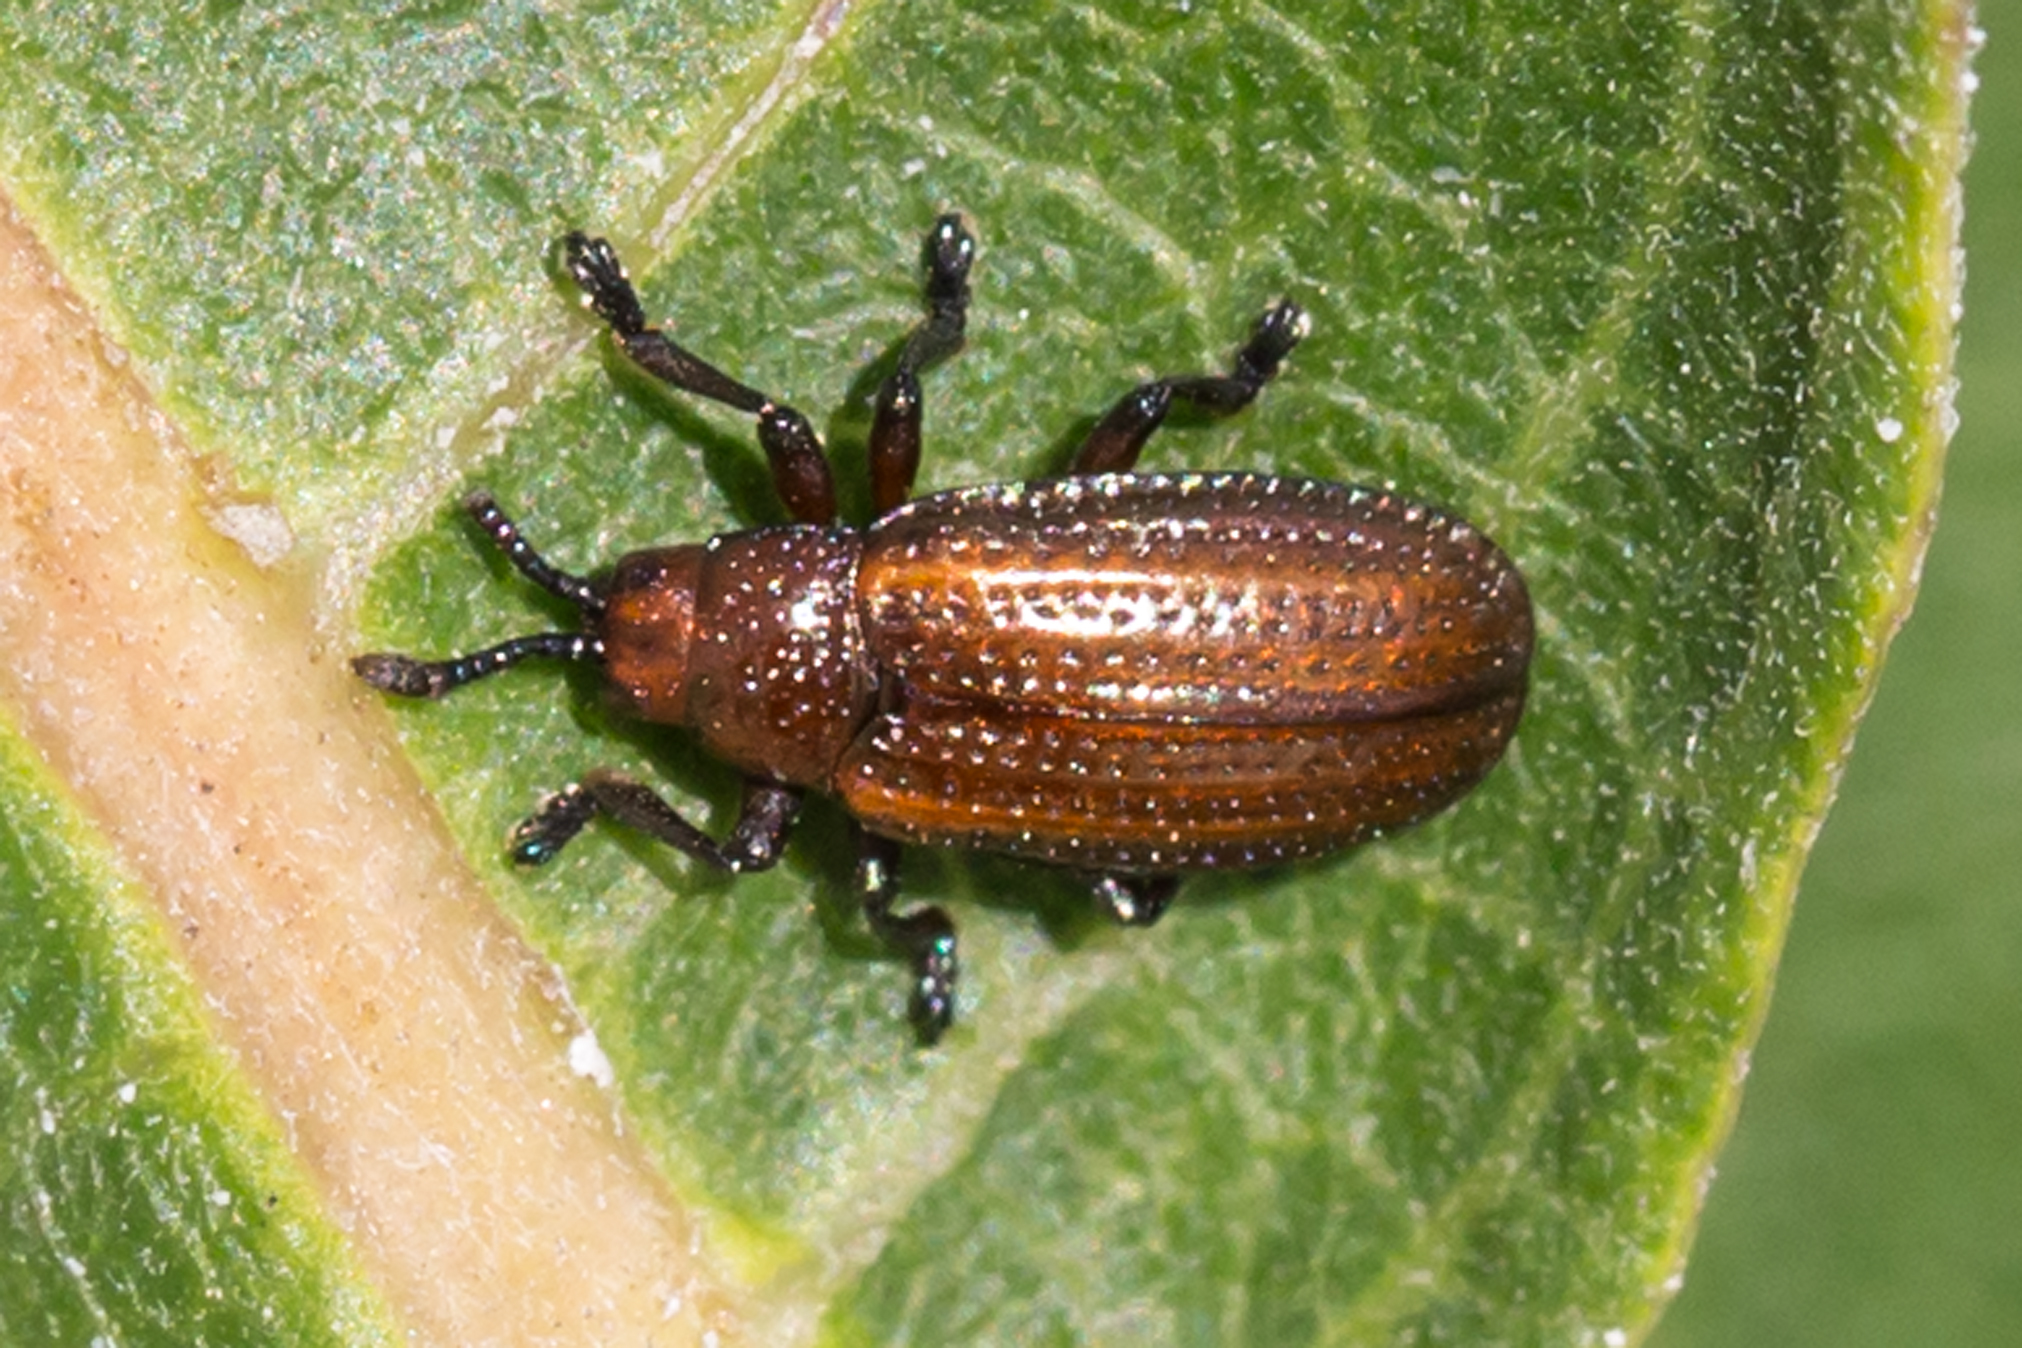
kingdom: Animalia
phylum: Arthropoda
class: Insecta
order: Coleoptera
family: Chrysomelidae
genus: Microrhopala
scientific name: Microrhopala vittata
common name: Goldenrod leaf miner beetle
